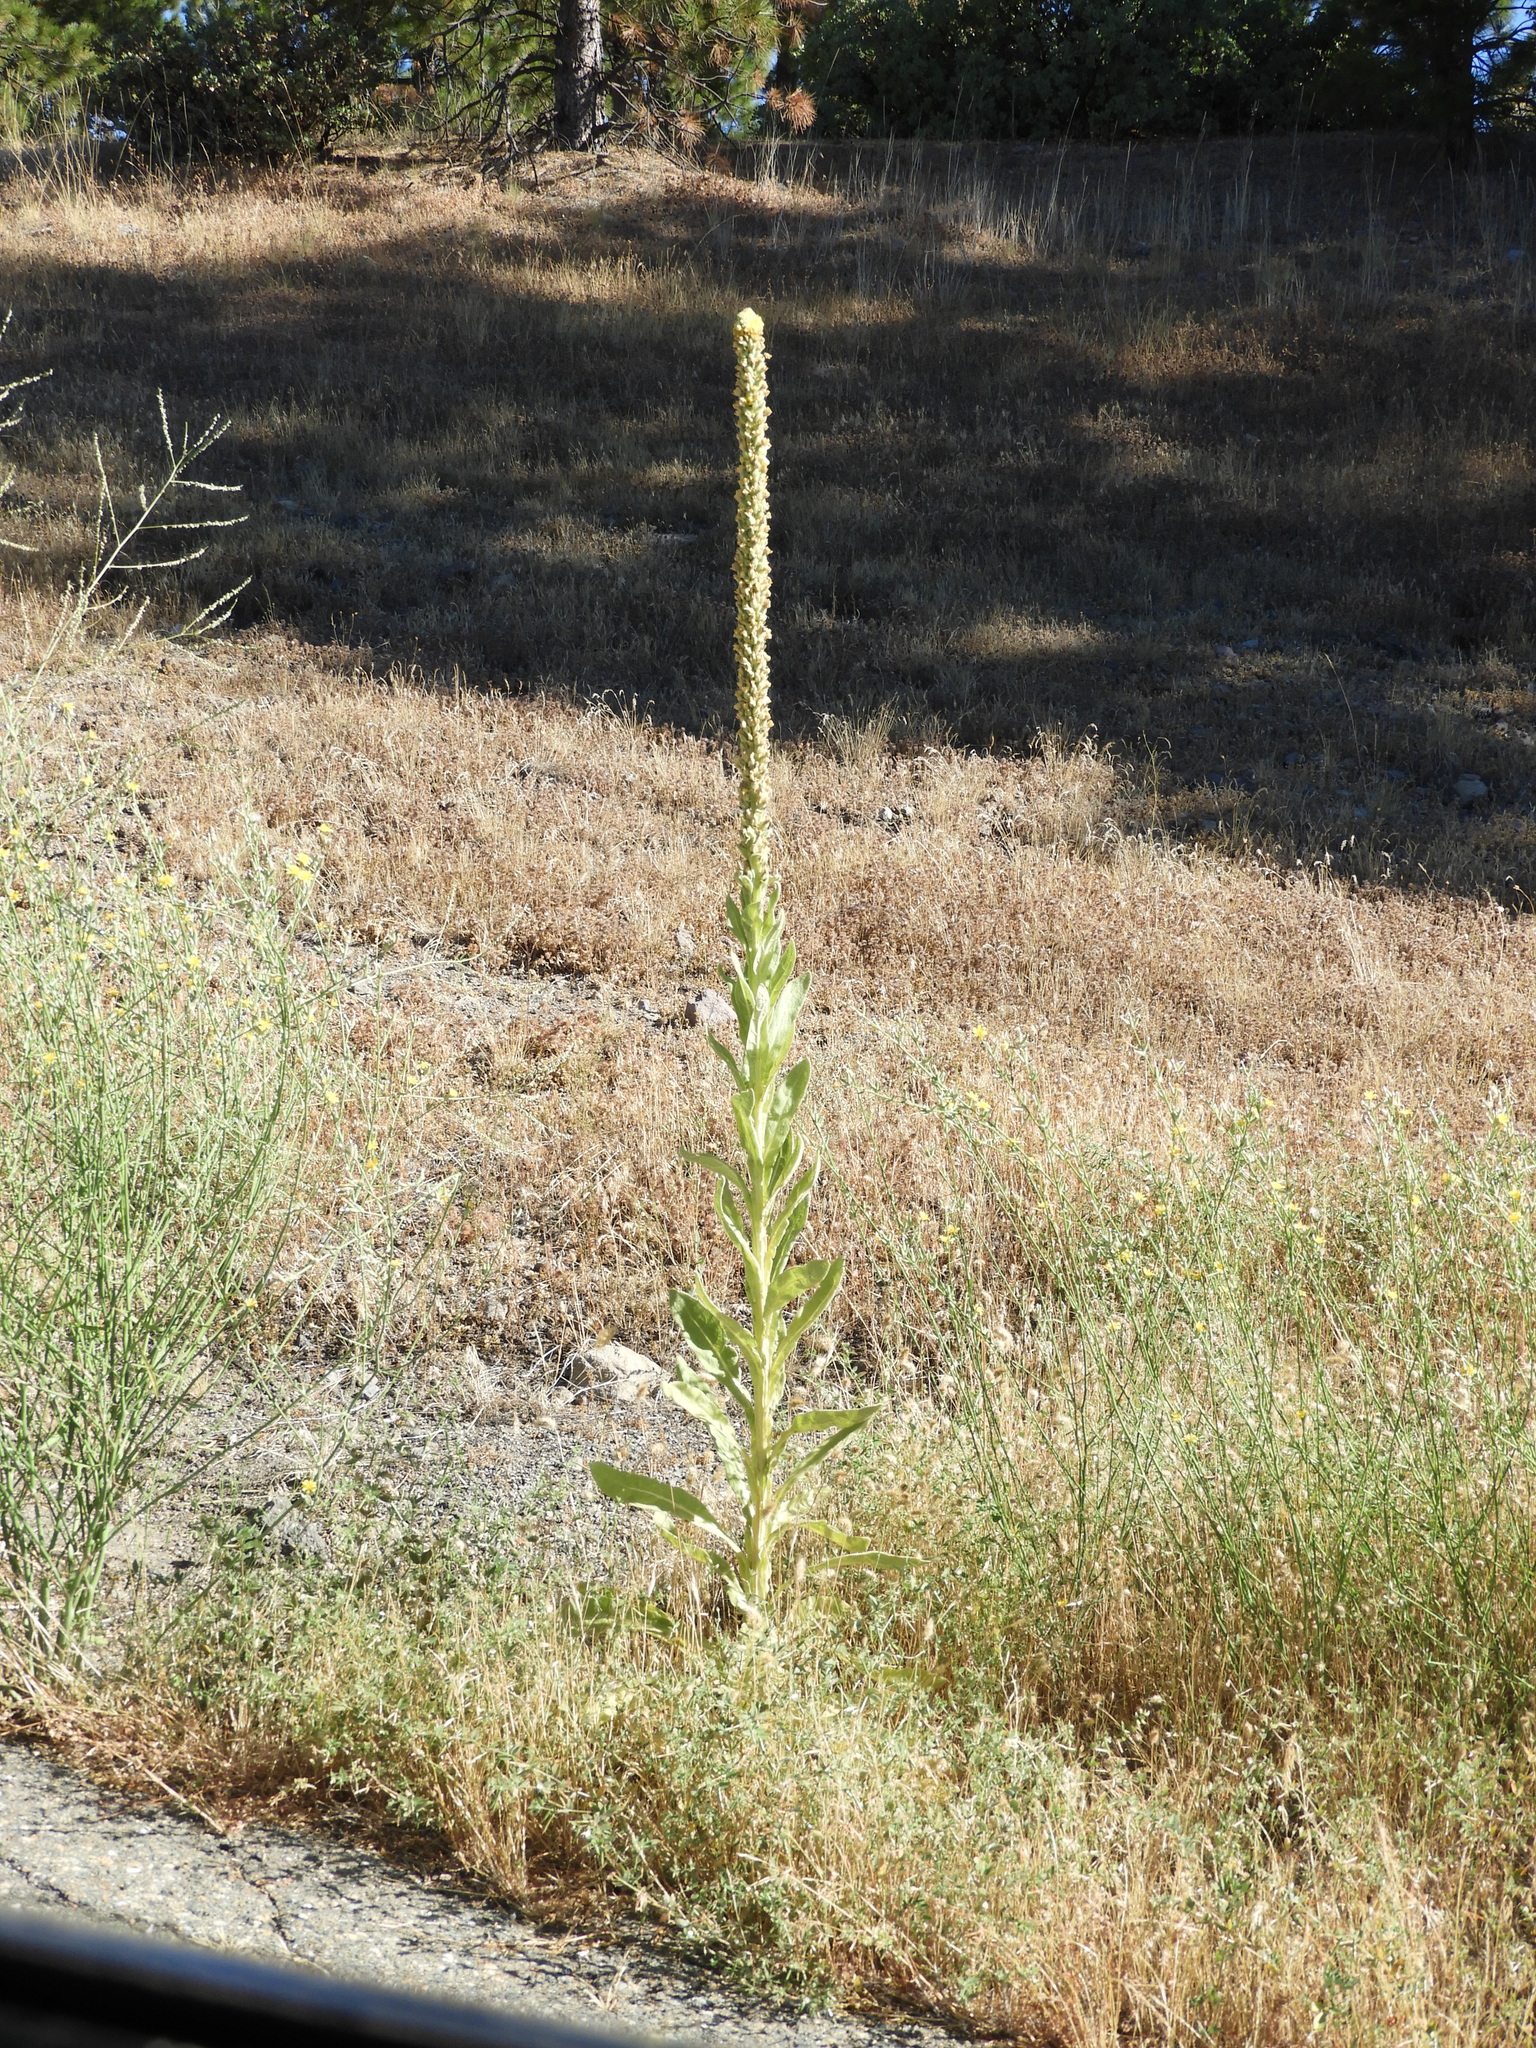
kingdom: Plantae
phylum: Tracheophyta
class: Magnoliopsida
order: Lamiales
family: Scrophulariaceae
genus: Verbascum
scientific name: Verbascum thapsus
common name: Common mullein
